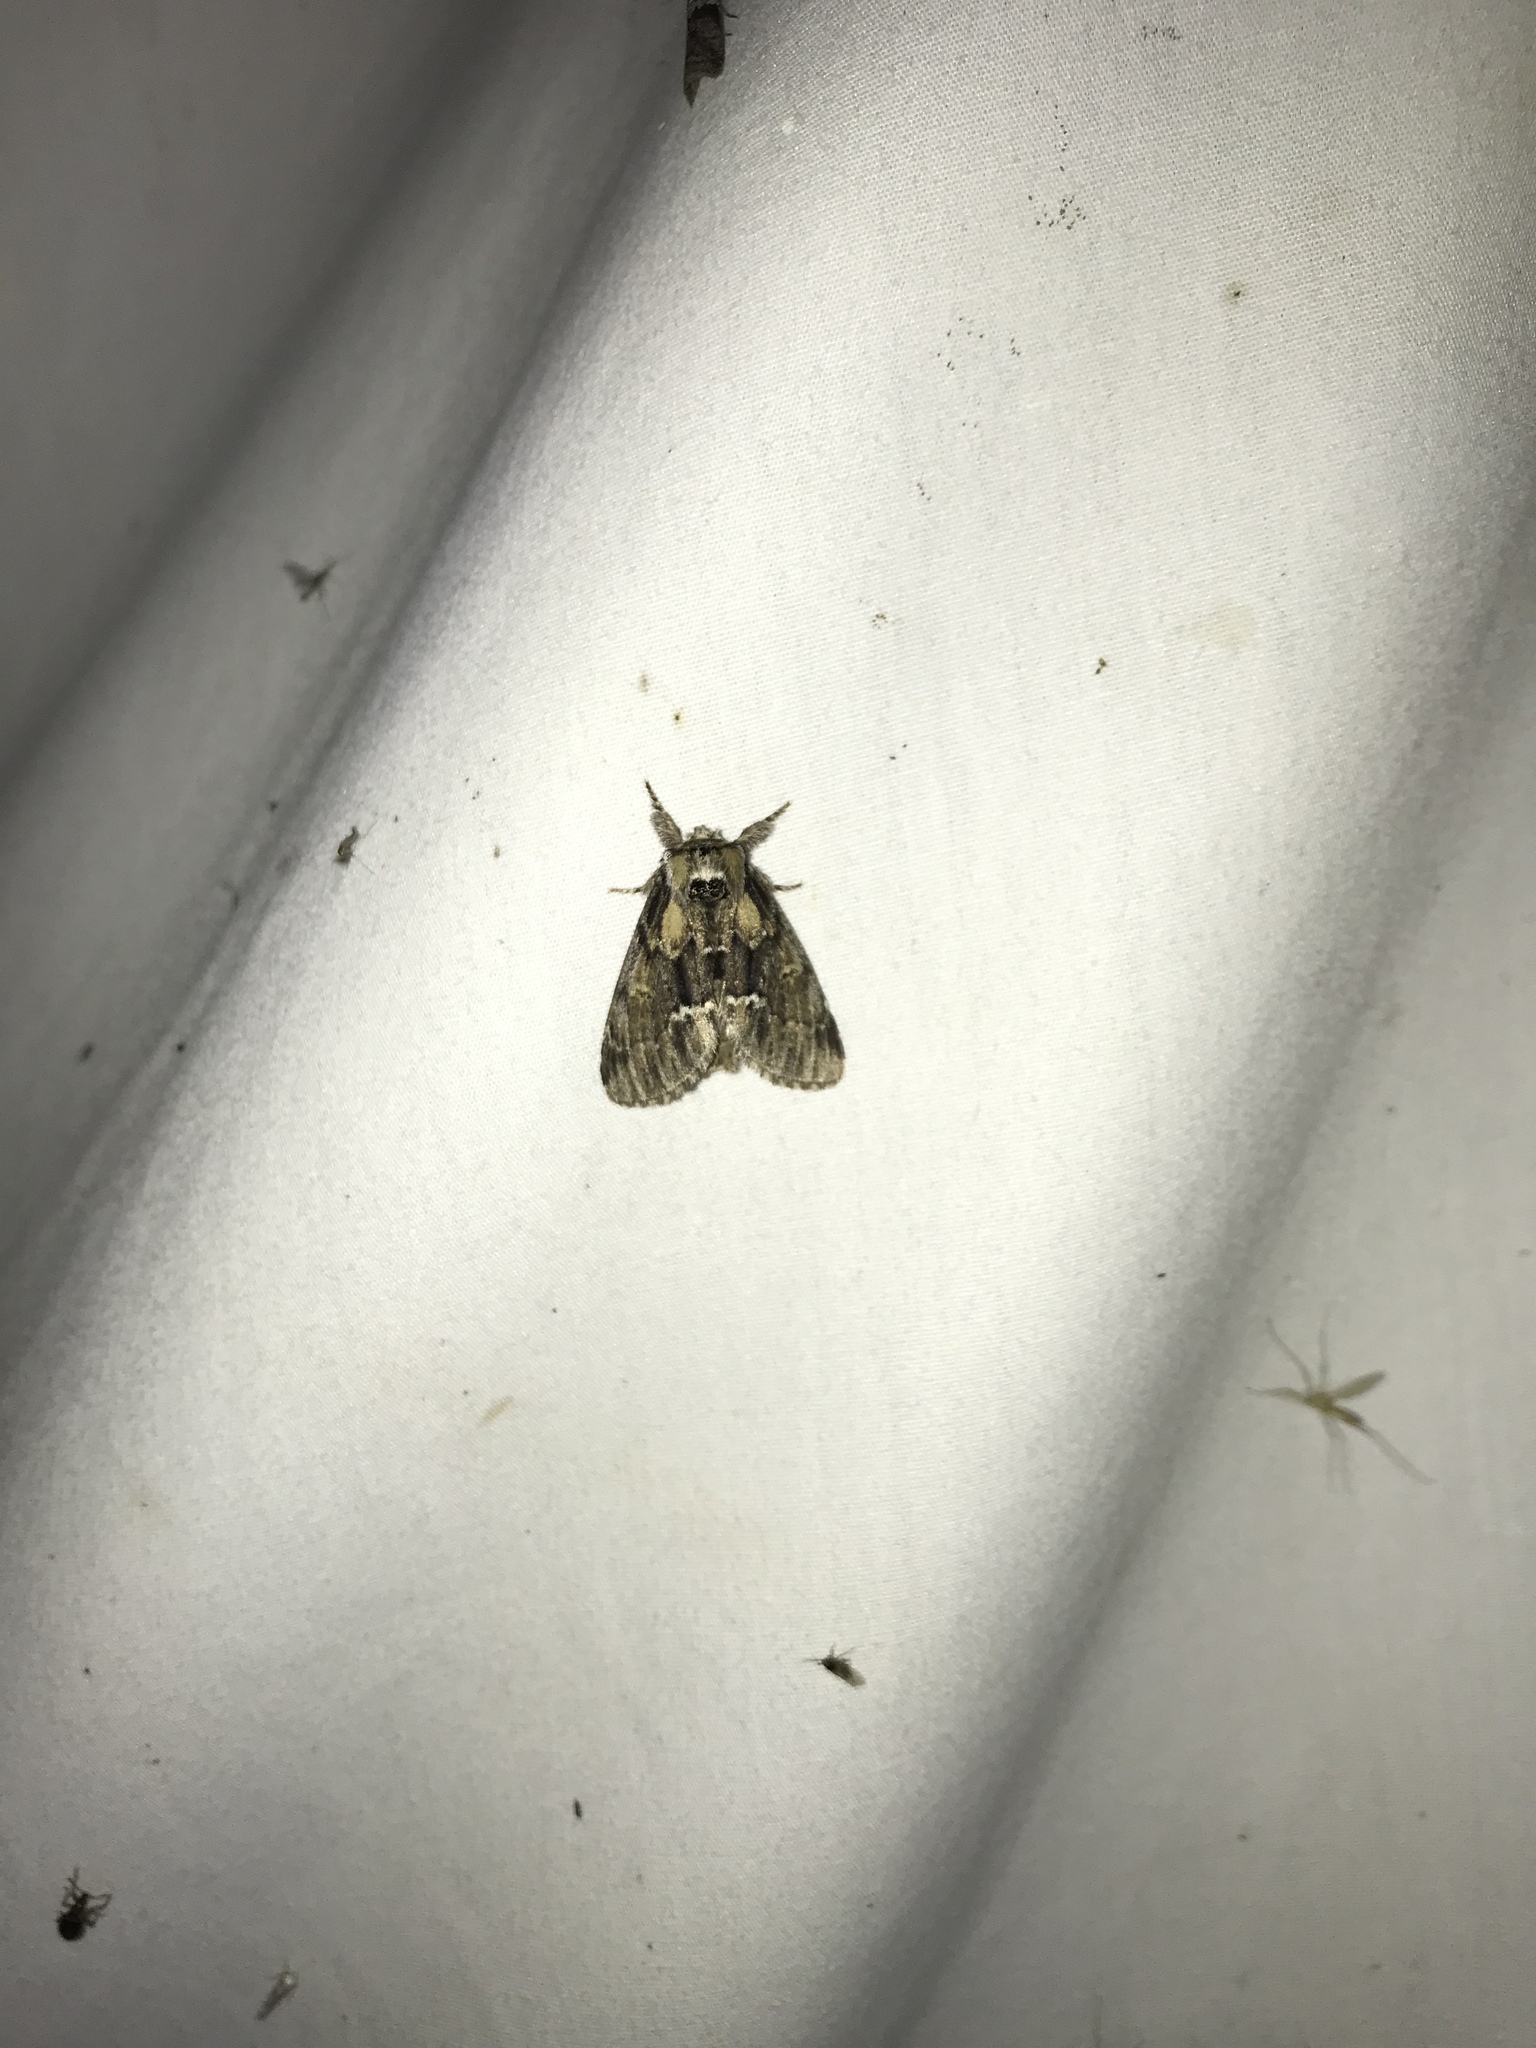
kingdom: Animalia
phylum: Arthropoda
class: Insecta
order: Lepidoptera
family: Notodontidae
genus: Paraeschra
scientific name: Paraeschra georgica
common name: Georgian prominent
